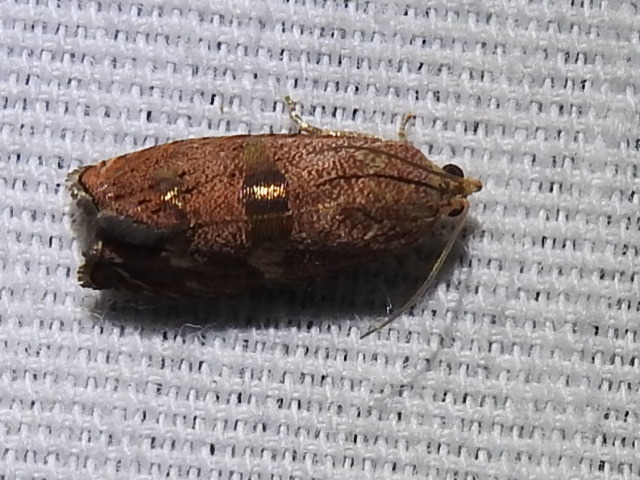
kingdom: Animalia
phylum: Arthropoda
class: Insecta
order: Lepidoptera
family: Tortricidae
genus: Cydia
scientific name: Cydia latiferreana
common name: Filbertworm moth
